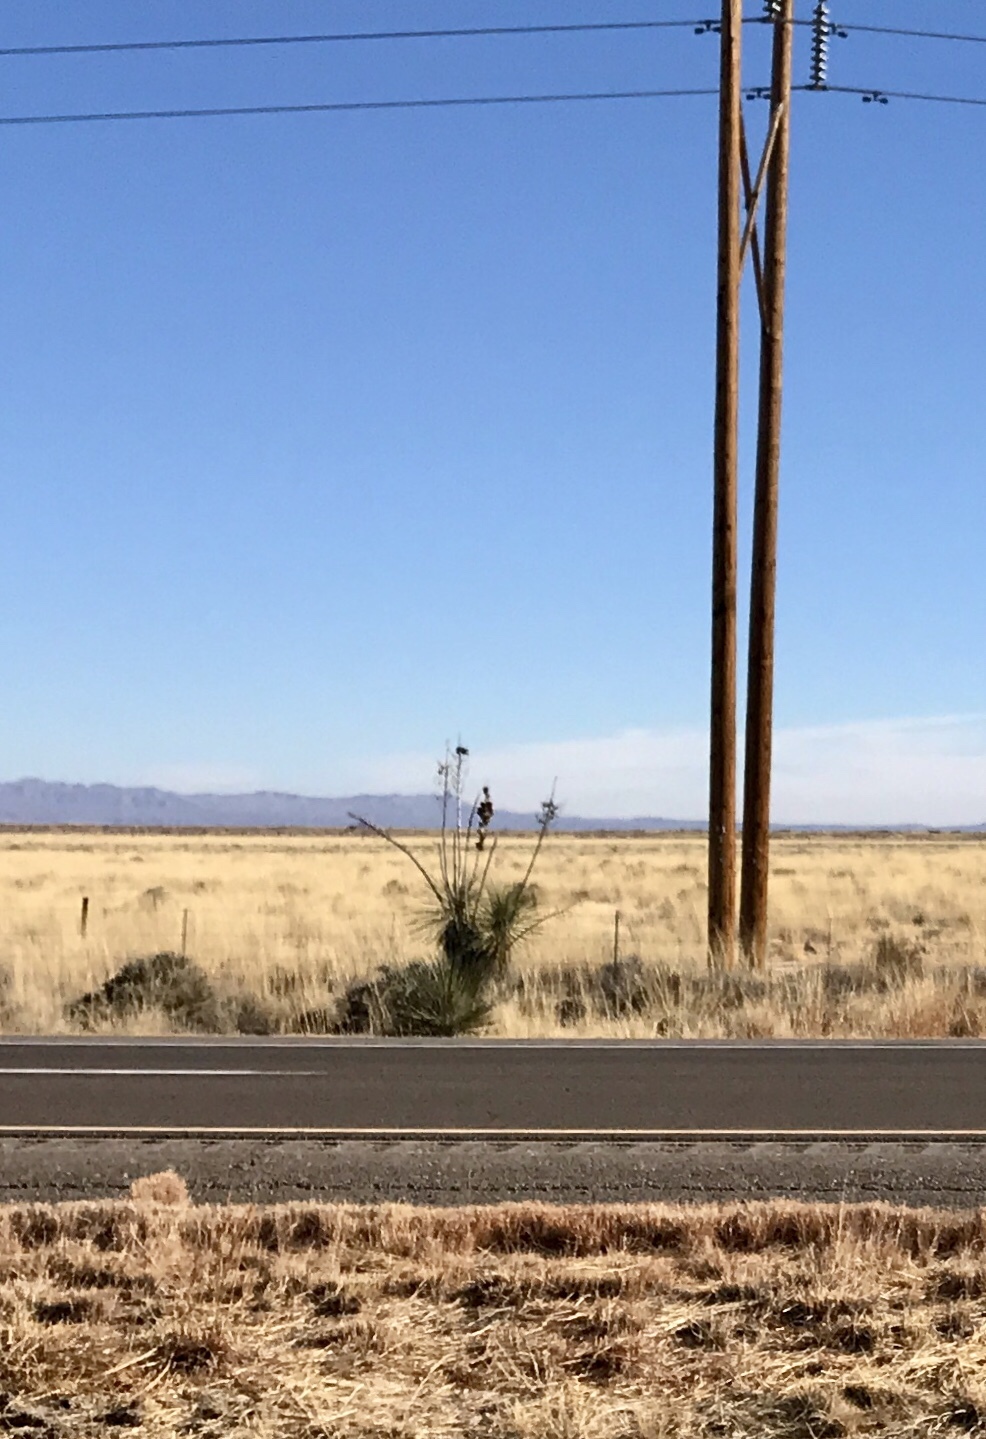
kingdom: Plantae
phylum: Tracheophyta
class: Liliopsida
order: Asparagales
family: Asparagaceae
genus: Yucca
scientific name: Yucca elata
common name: Palmella
